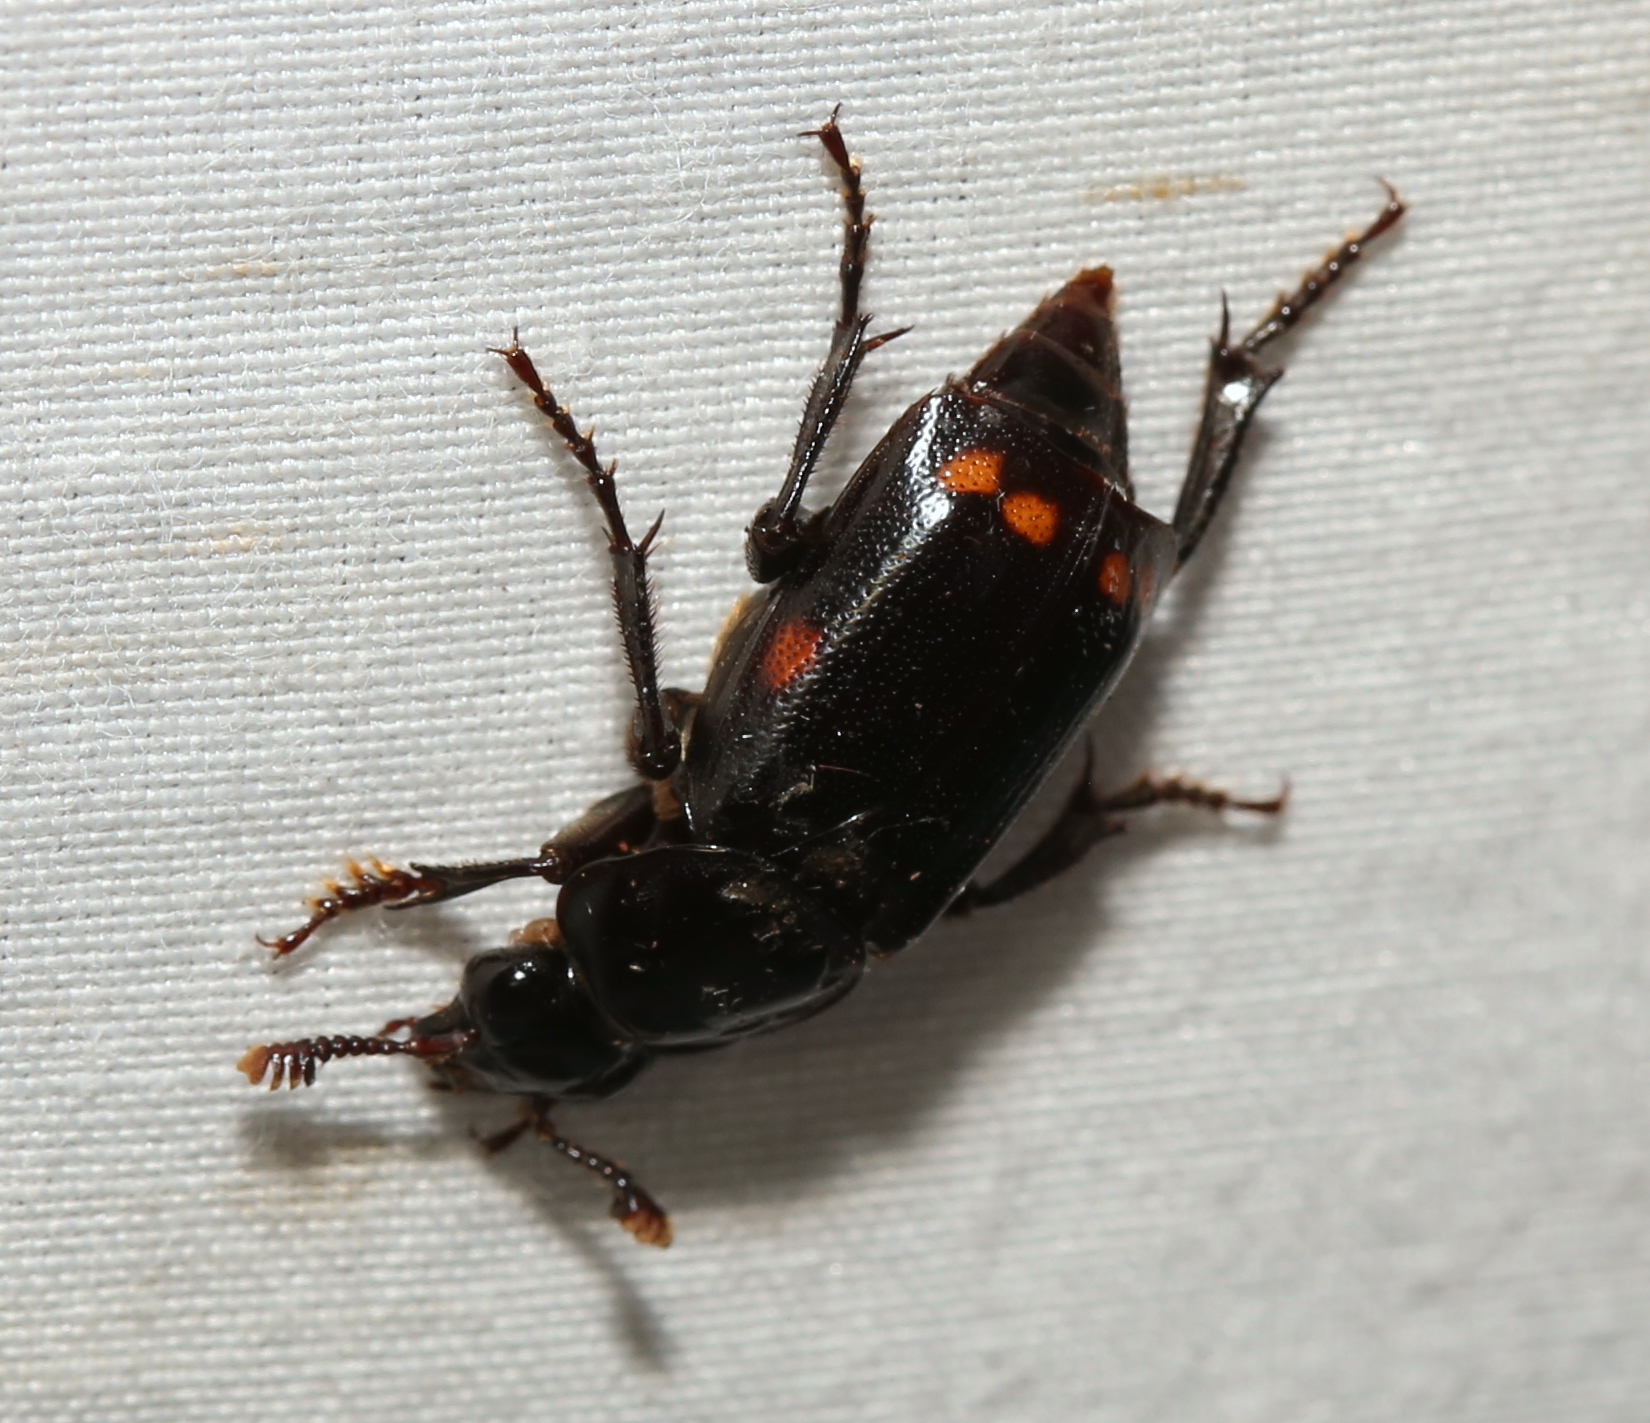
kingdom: Animalia
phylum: Arthropoda
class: Insecta
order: Coleoptera
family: Staphylinidae
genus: Nicrophorus
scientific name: Nicrophorus pustulatus
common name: Pustulated carrion beetle
